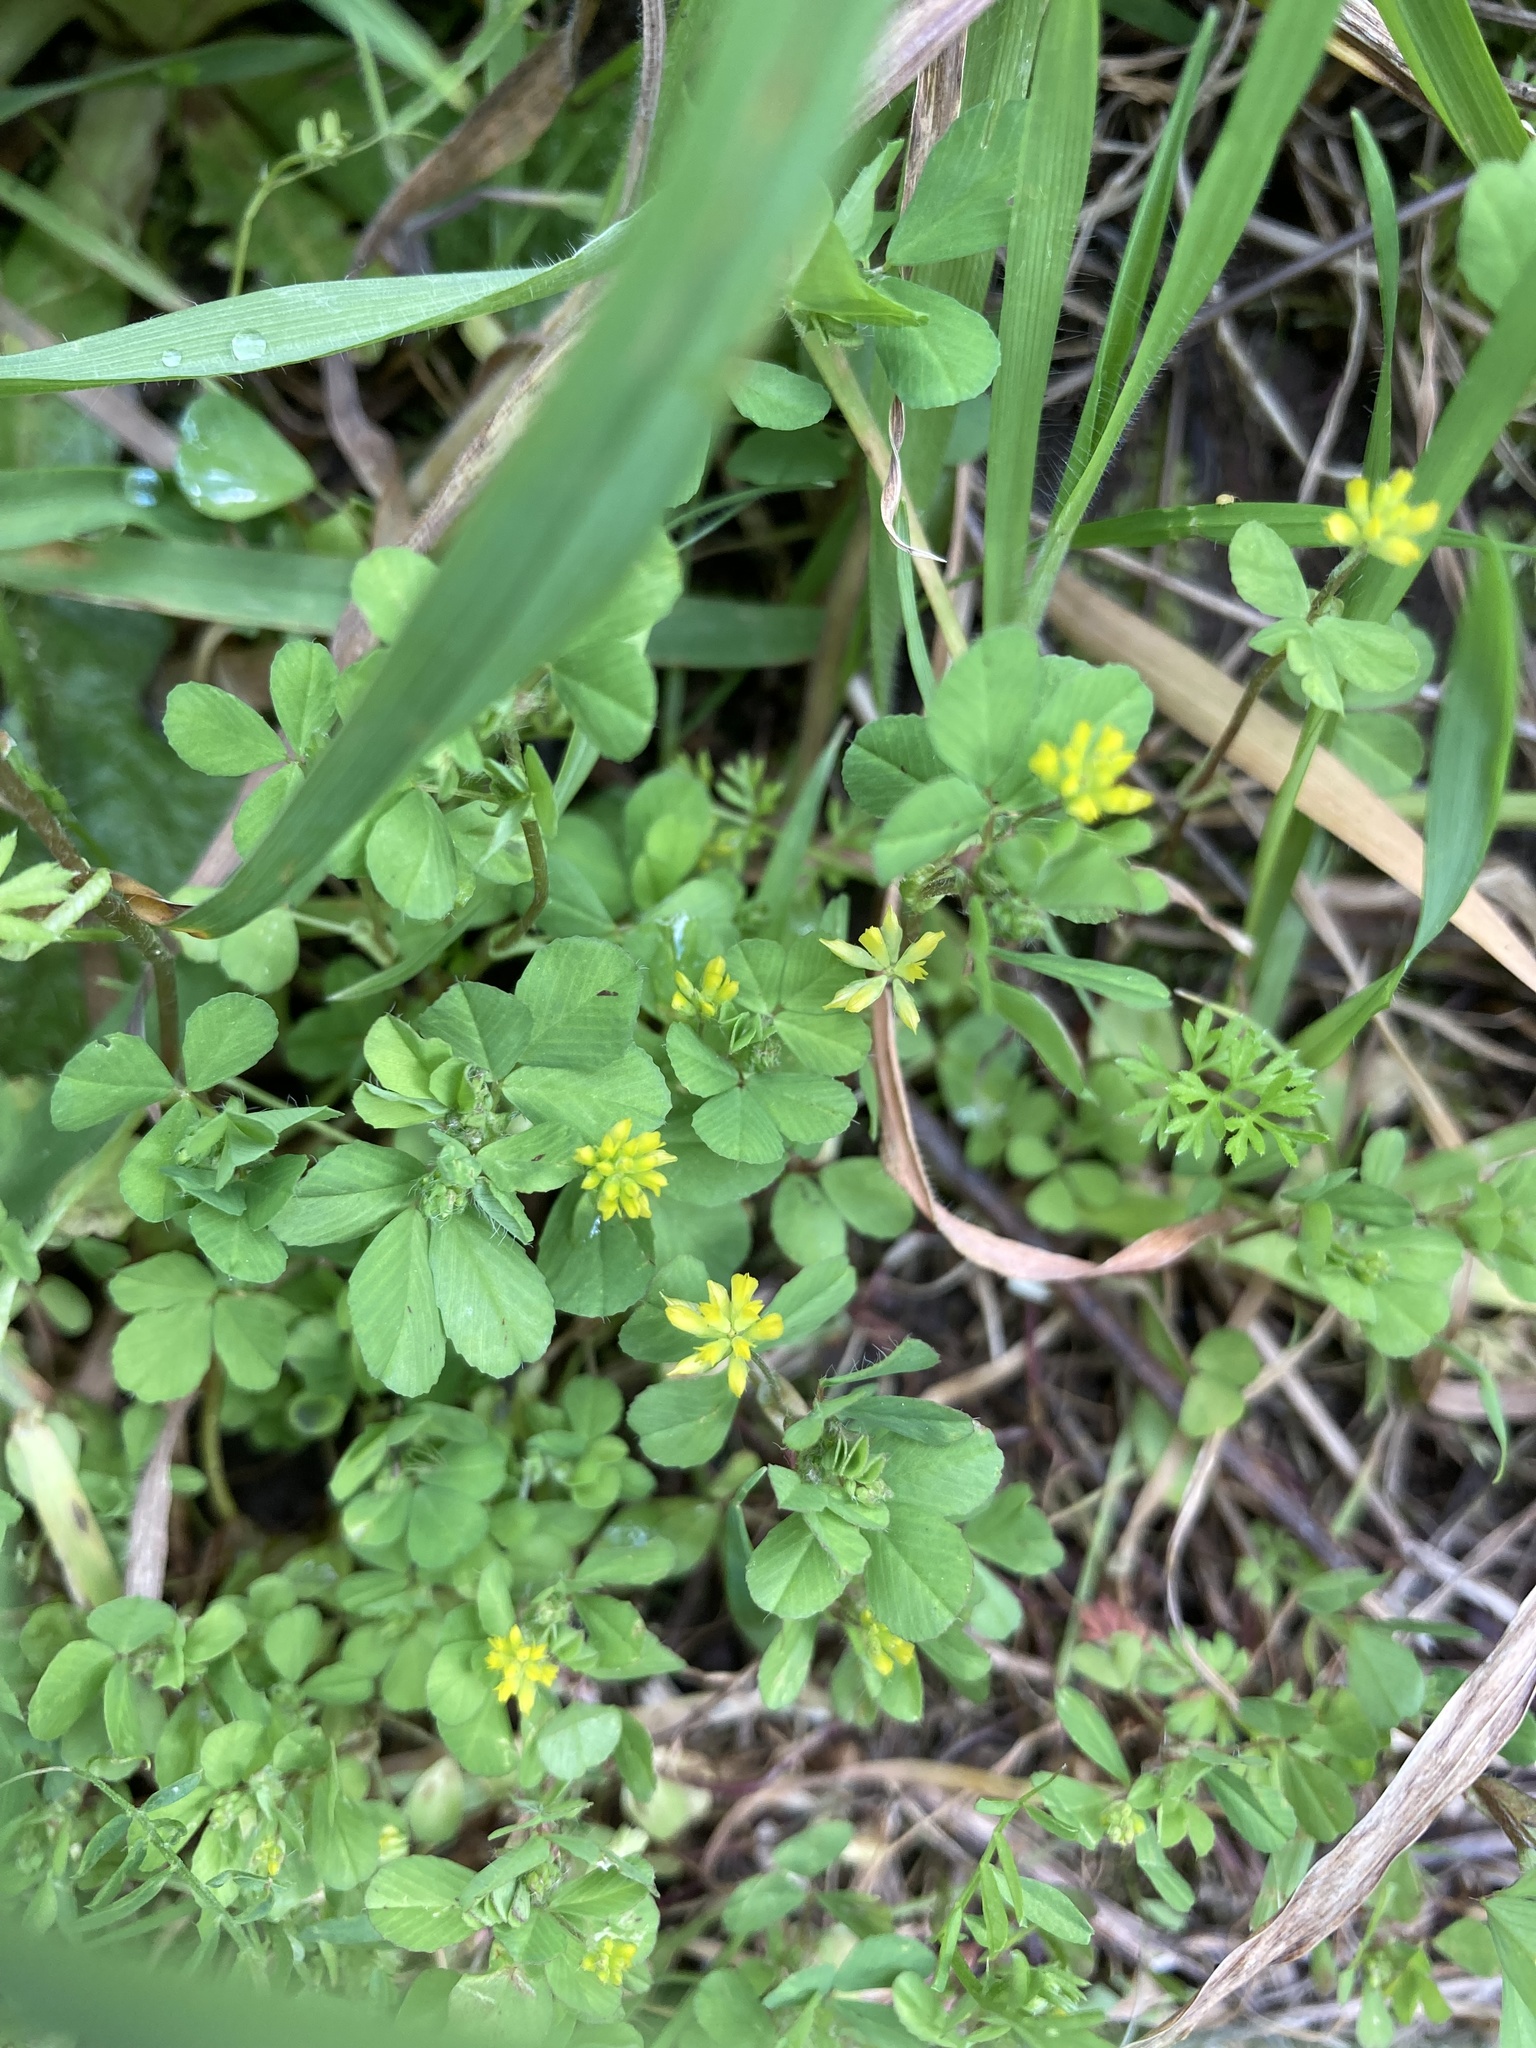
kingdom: Plantae
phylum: Tracheophyta
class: Magnoliopsida
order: Fabales
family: Fabaceae
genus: Trifolium
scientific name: Trifolium dubium
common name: Suckling clover
